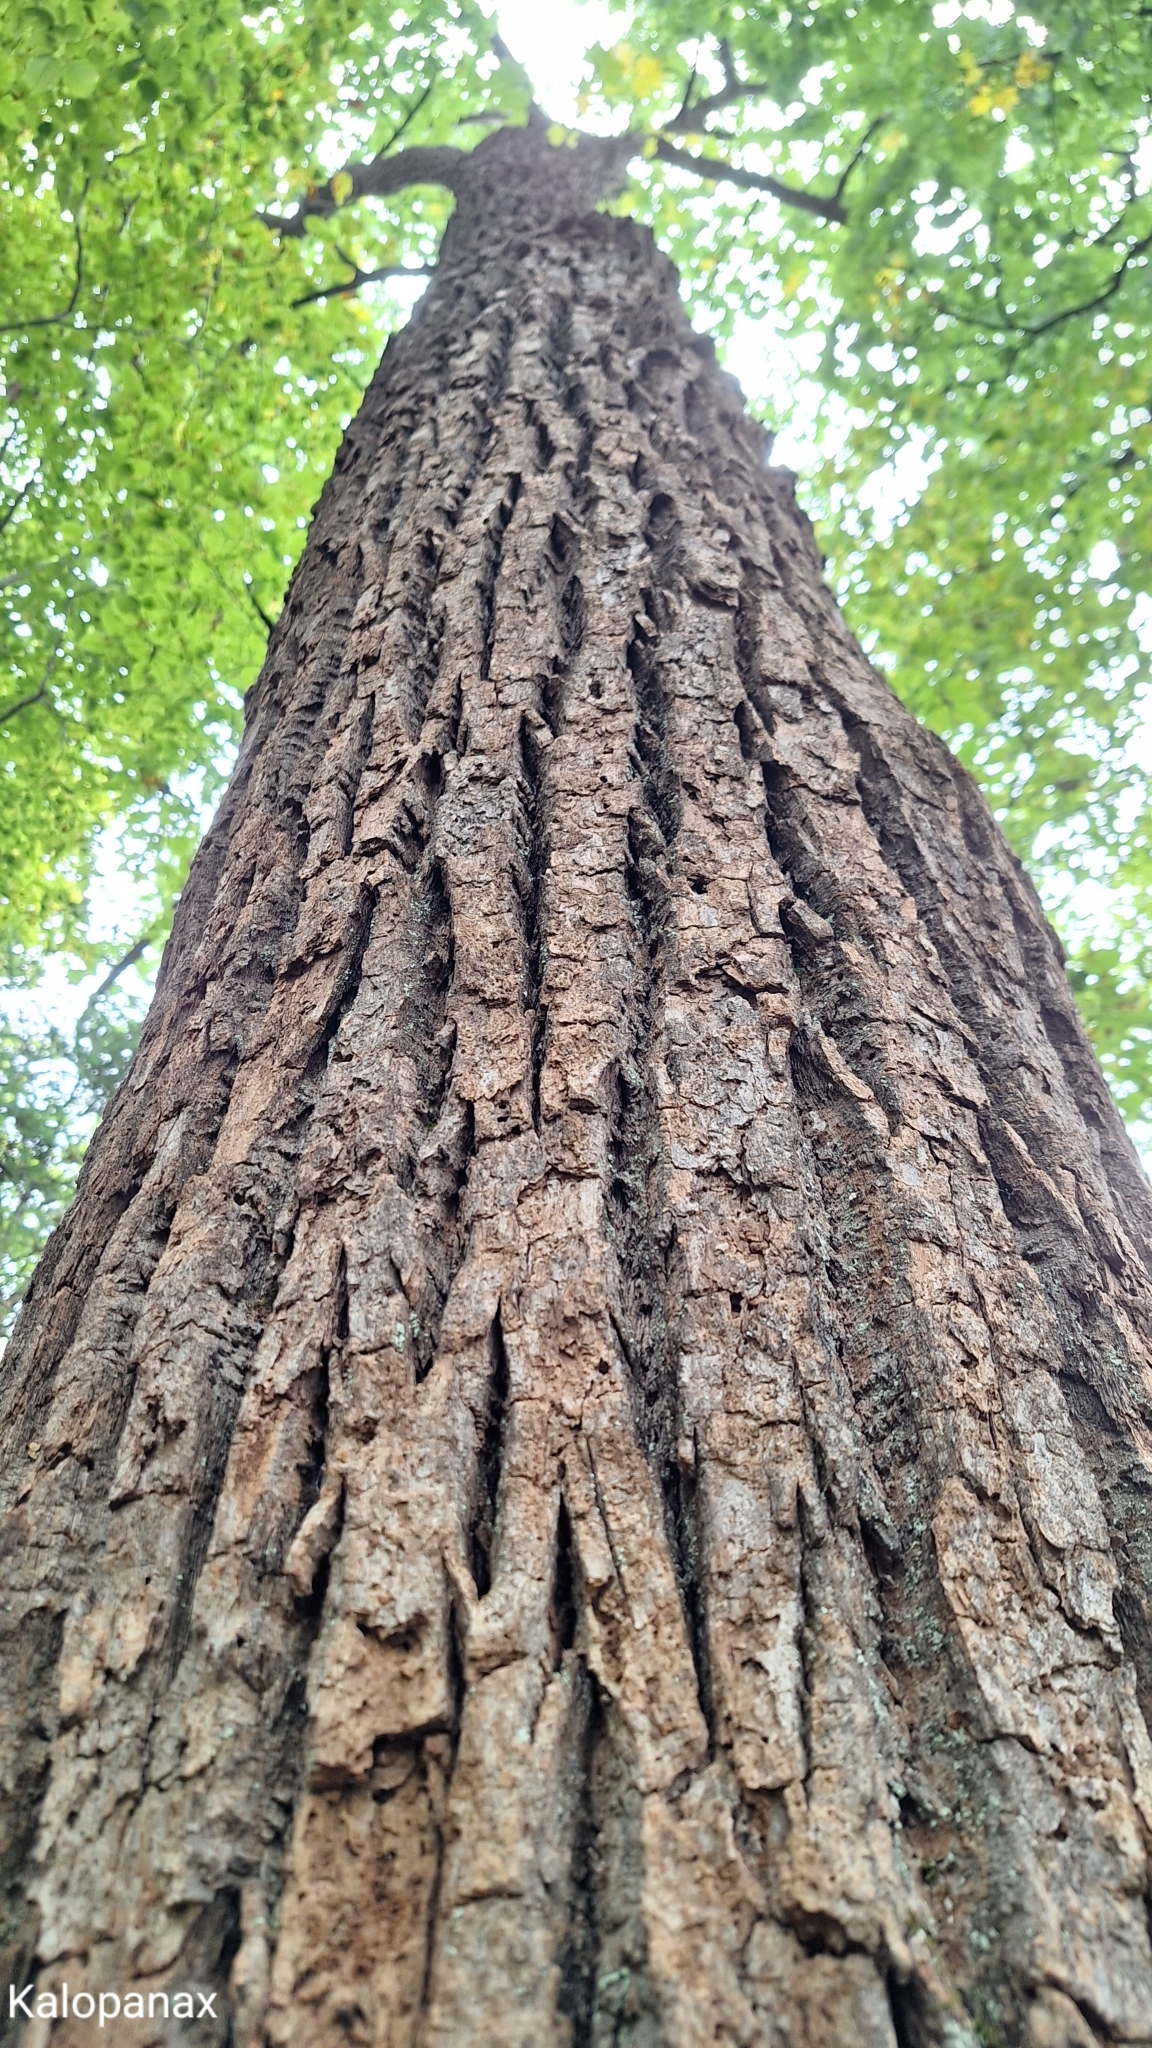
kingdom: Plantae
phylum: Tracheophyta
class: Magnoliopsida
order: Apiales
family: Araliaceae
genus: Kalopanax
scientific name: Kalopanax septemlobus
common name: Castor aralia
